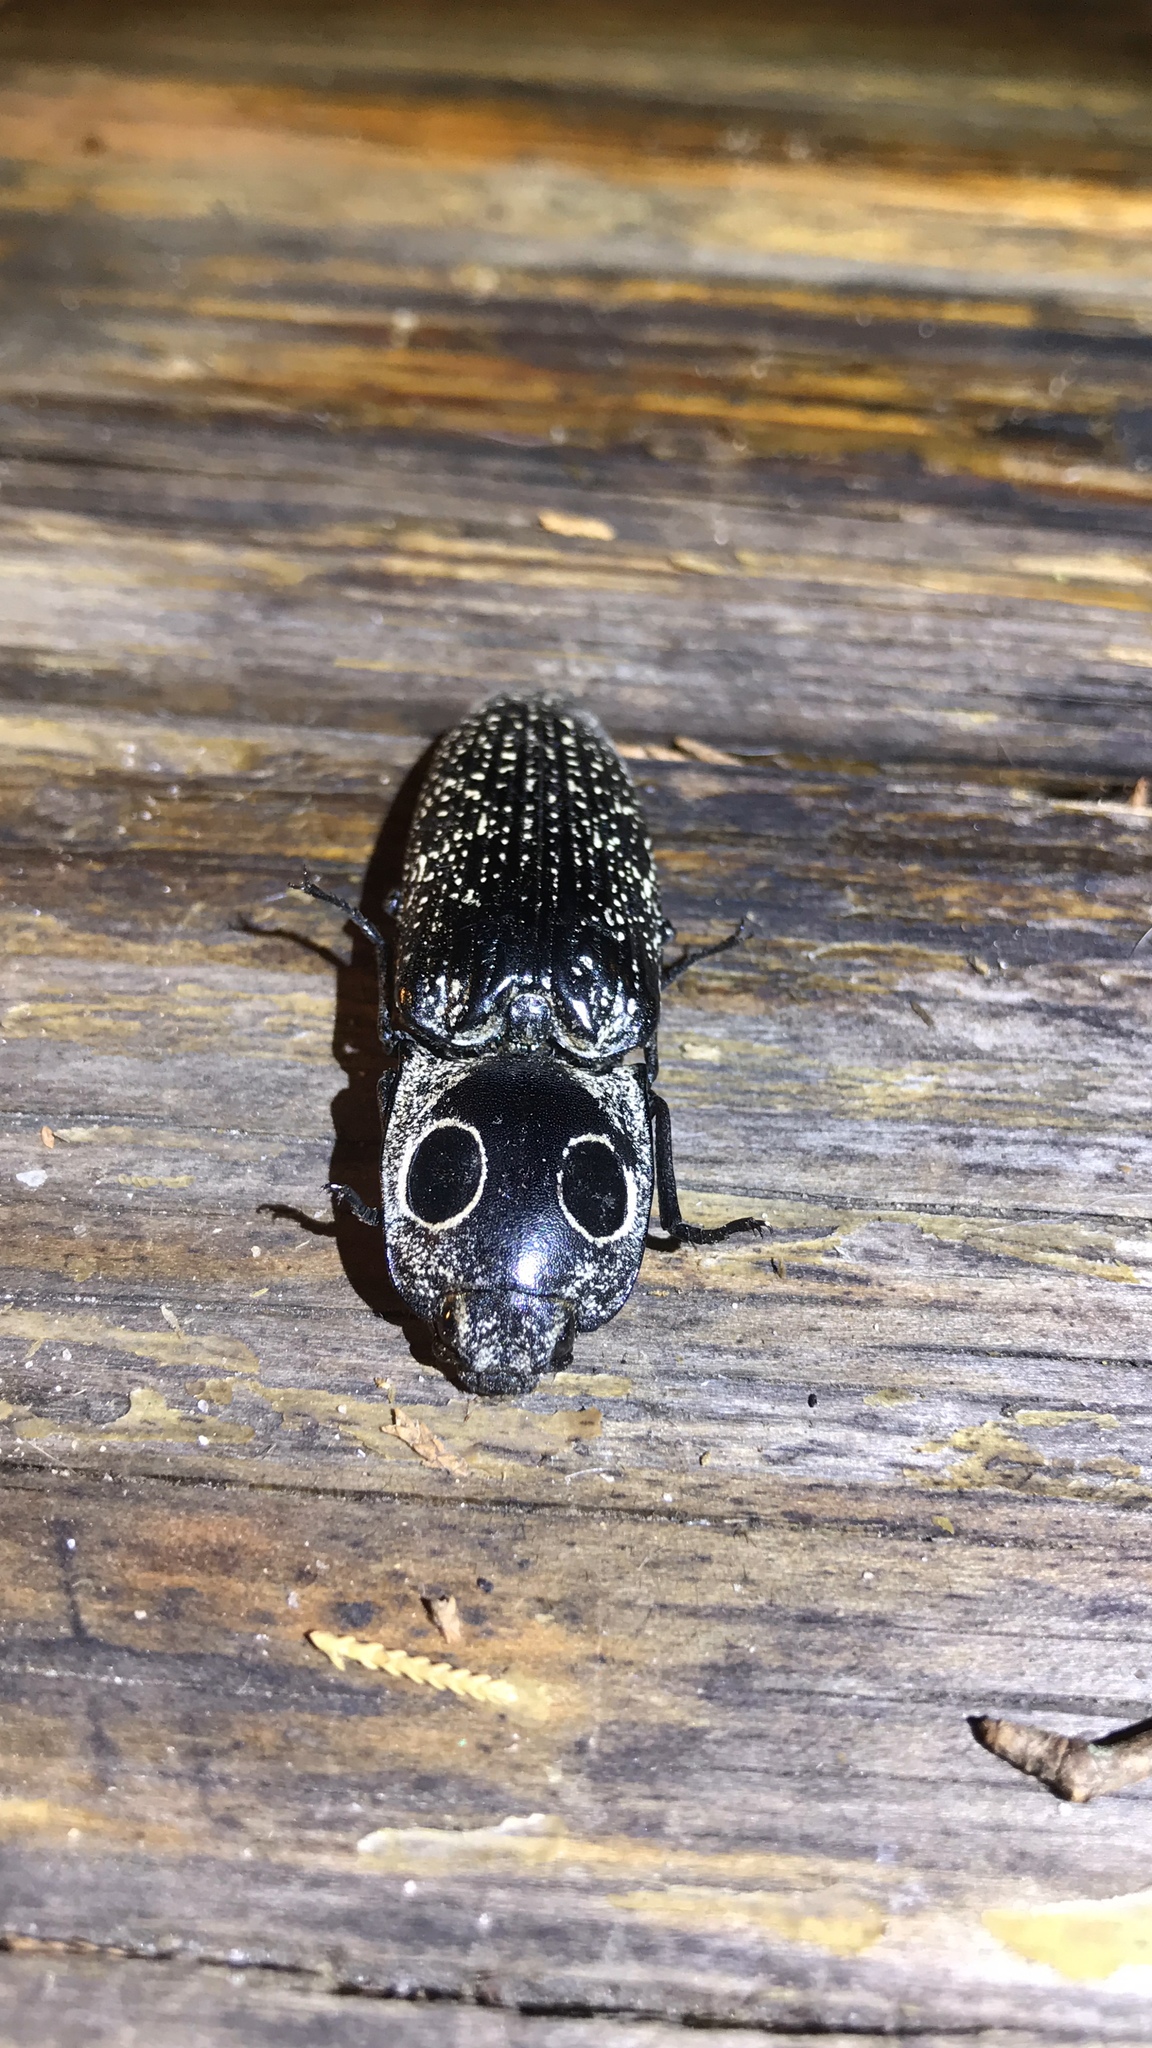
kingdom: Animalia
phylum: Arthropoda
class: Insecta
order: Coleoptera
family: Elateridae
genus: Alaus
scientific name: Alaus oculatus
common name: Eastern eyed click beetle
